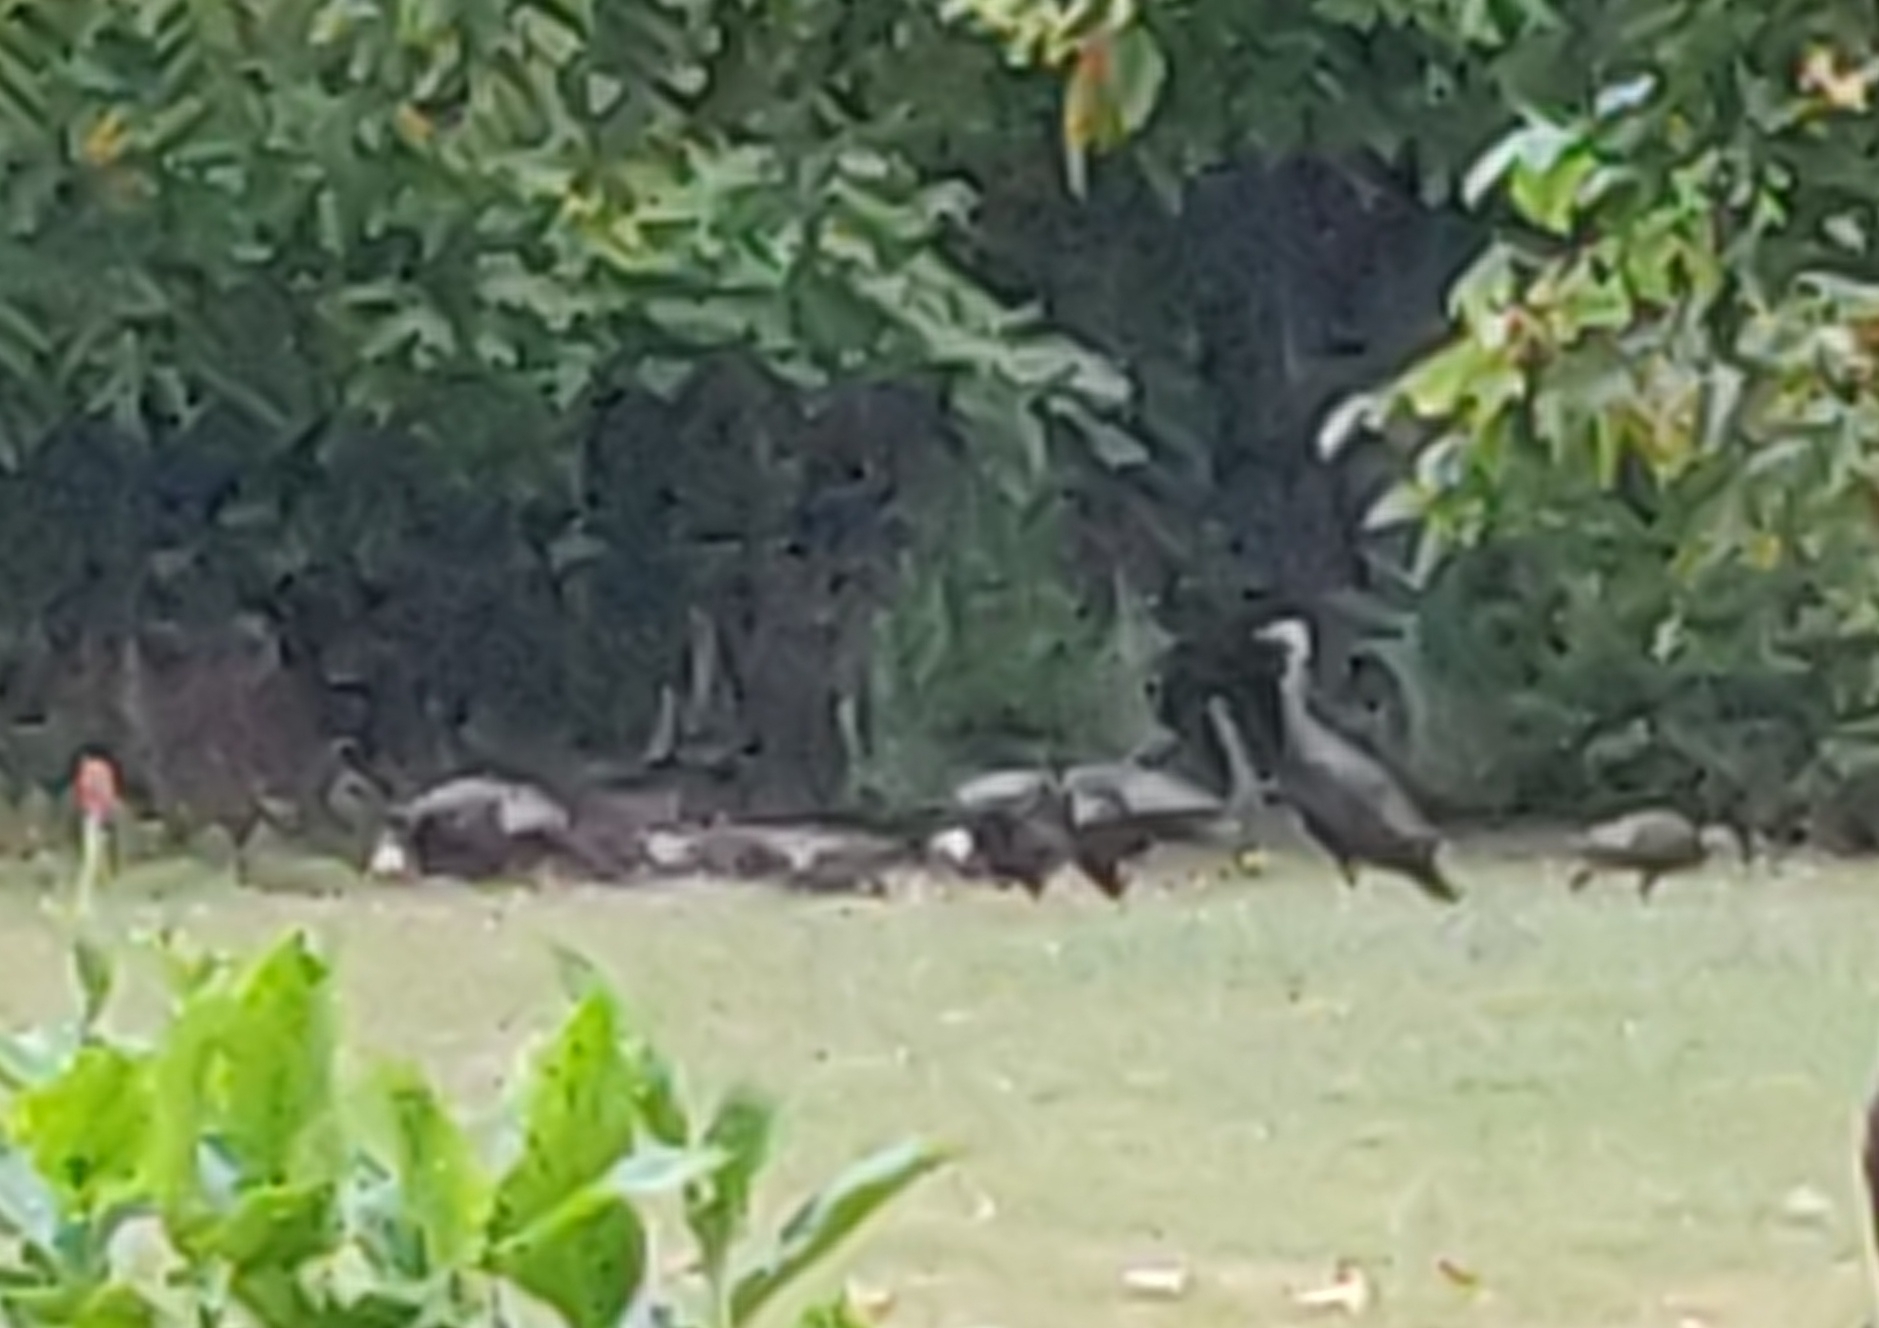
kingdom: Animalia
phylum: Chordata
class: Aves
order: Galliformes
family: Phasianidae
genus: Meleagris
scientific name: Meleagris gallopavo
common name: Wild turkey
